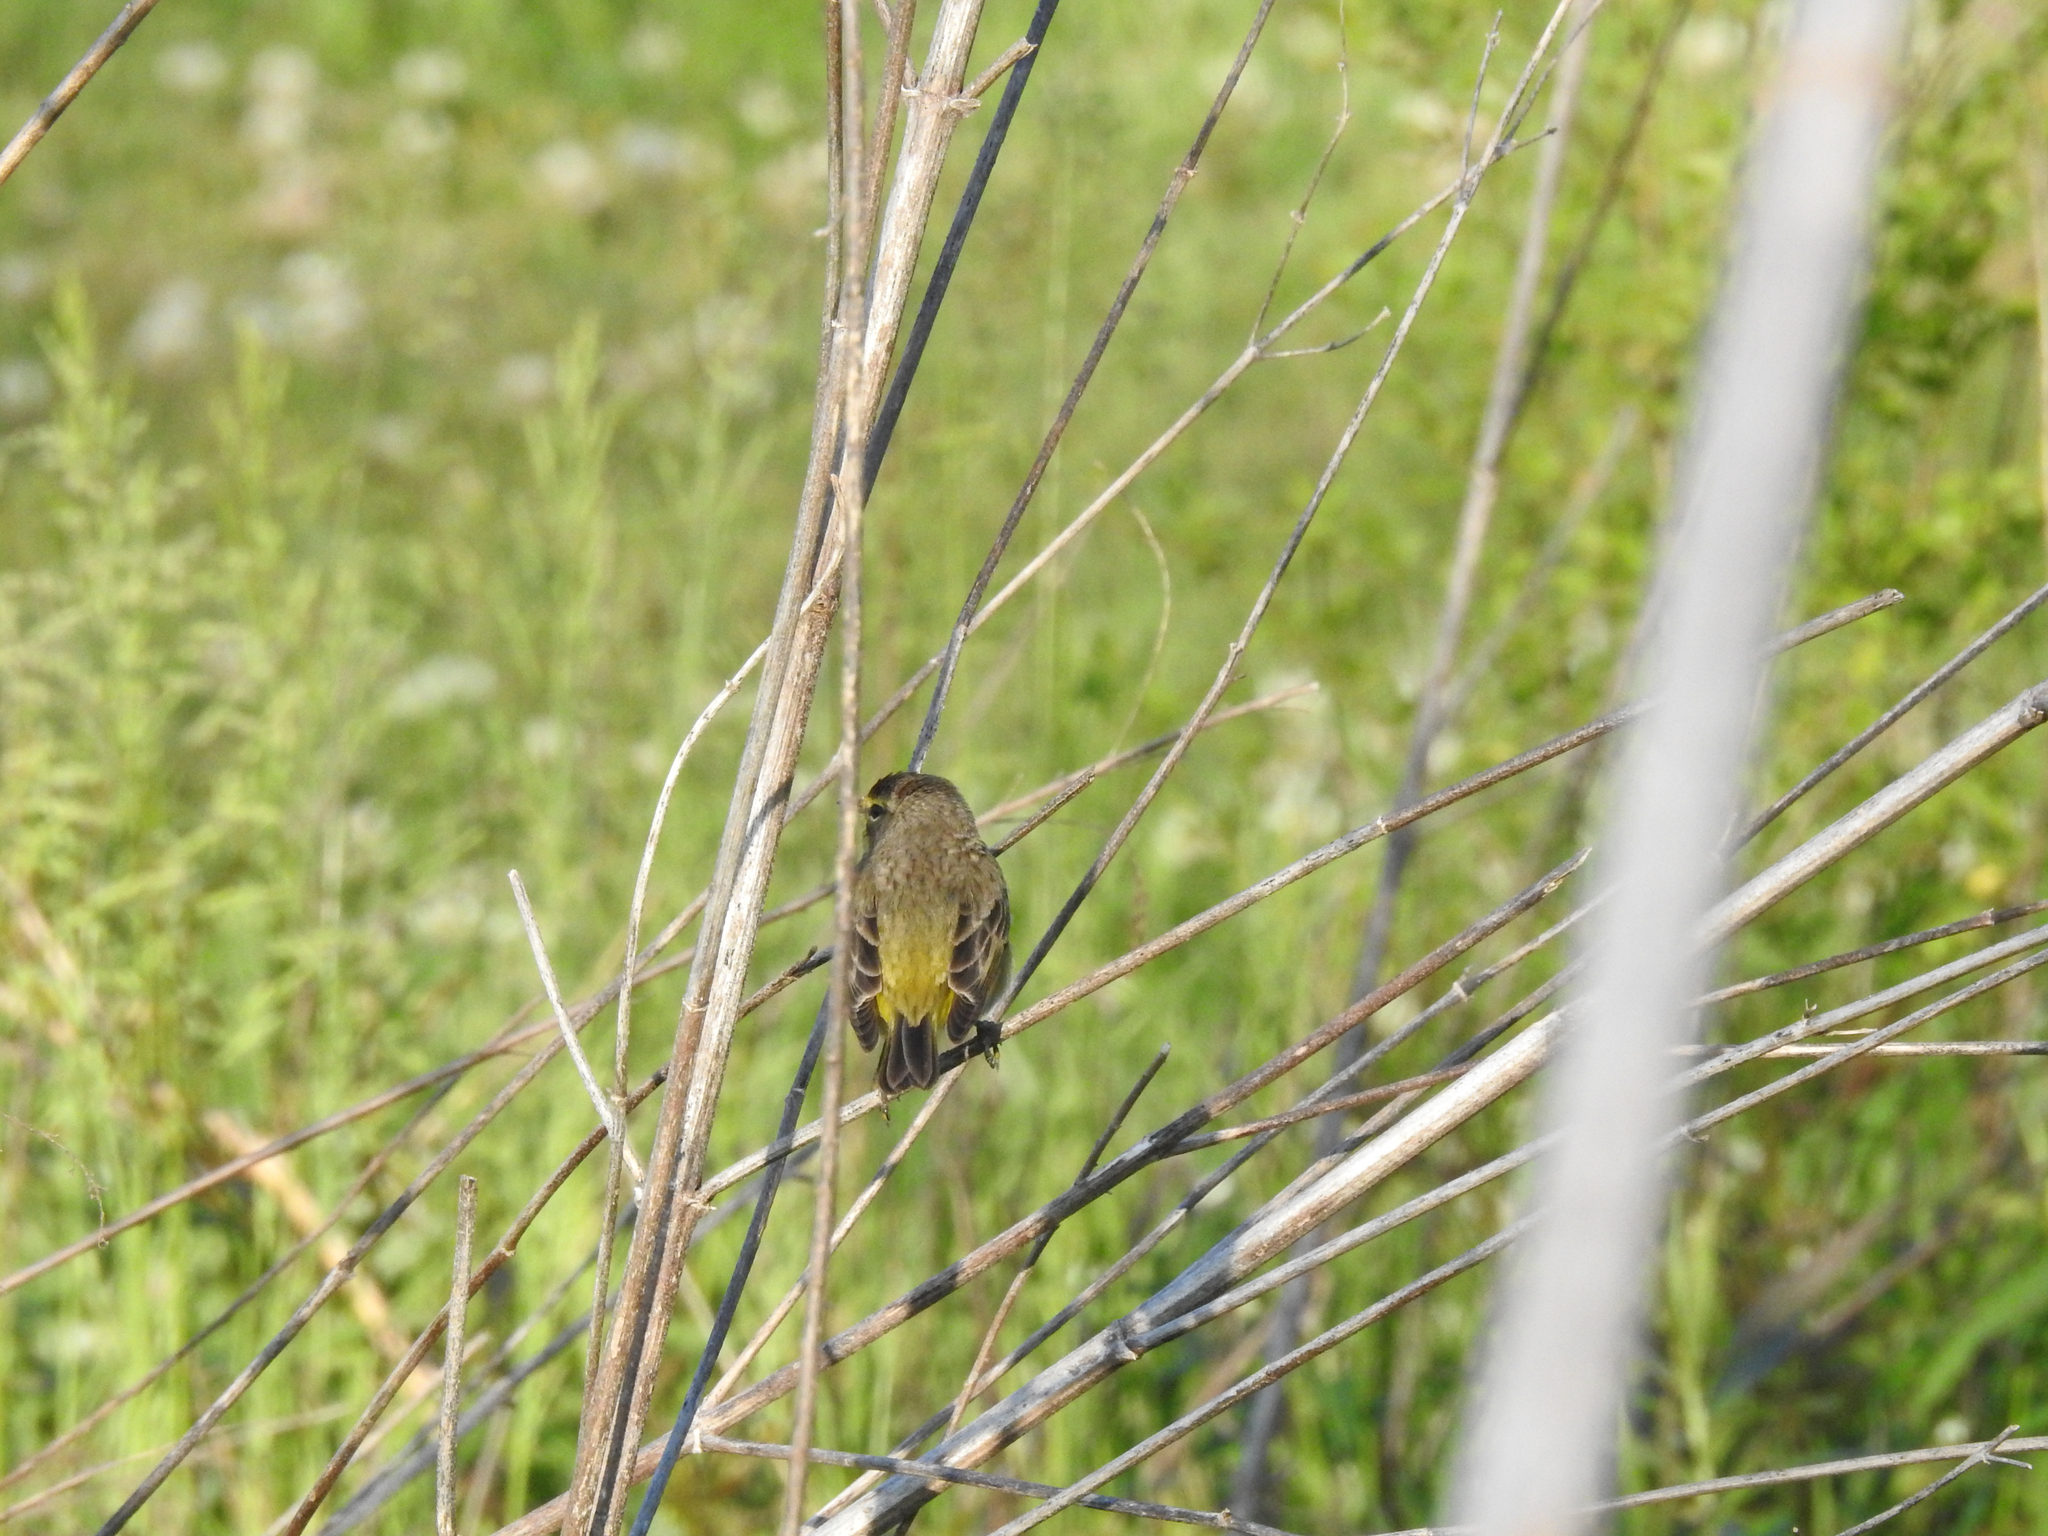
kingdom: Animalia
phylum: Chordata
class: Aves
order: Passeriformes
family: Parulidae
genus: Setophaga
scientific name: Setophaga palmarum
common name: Palm warbler
